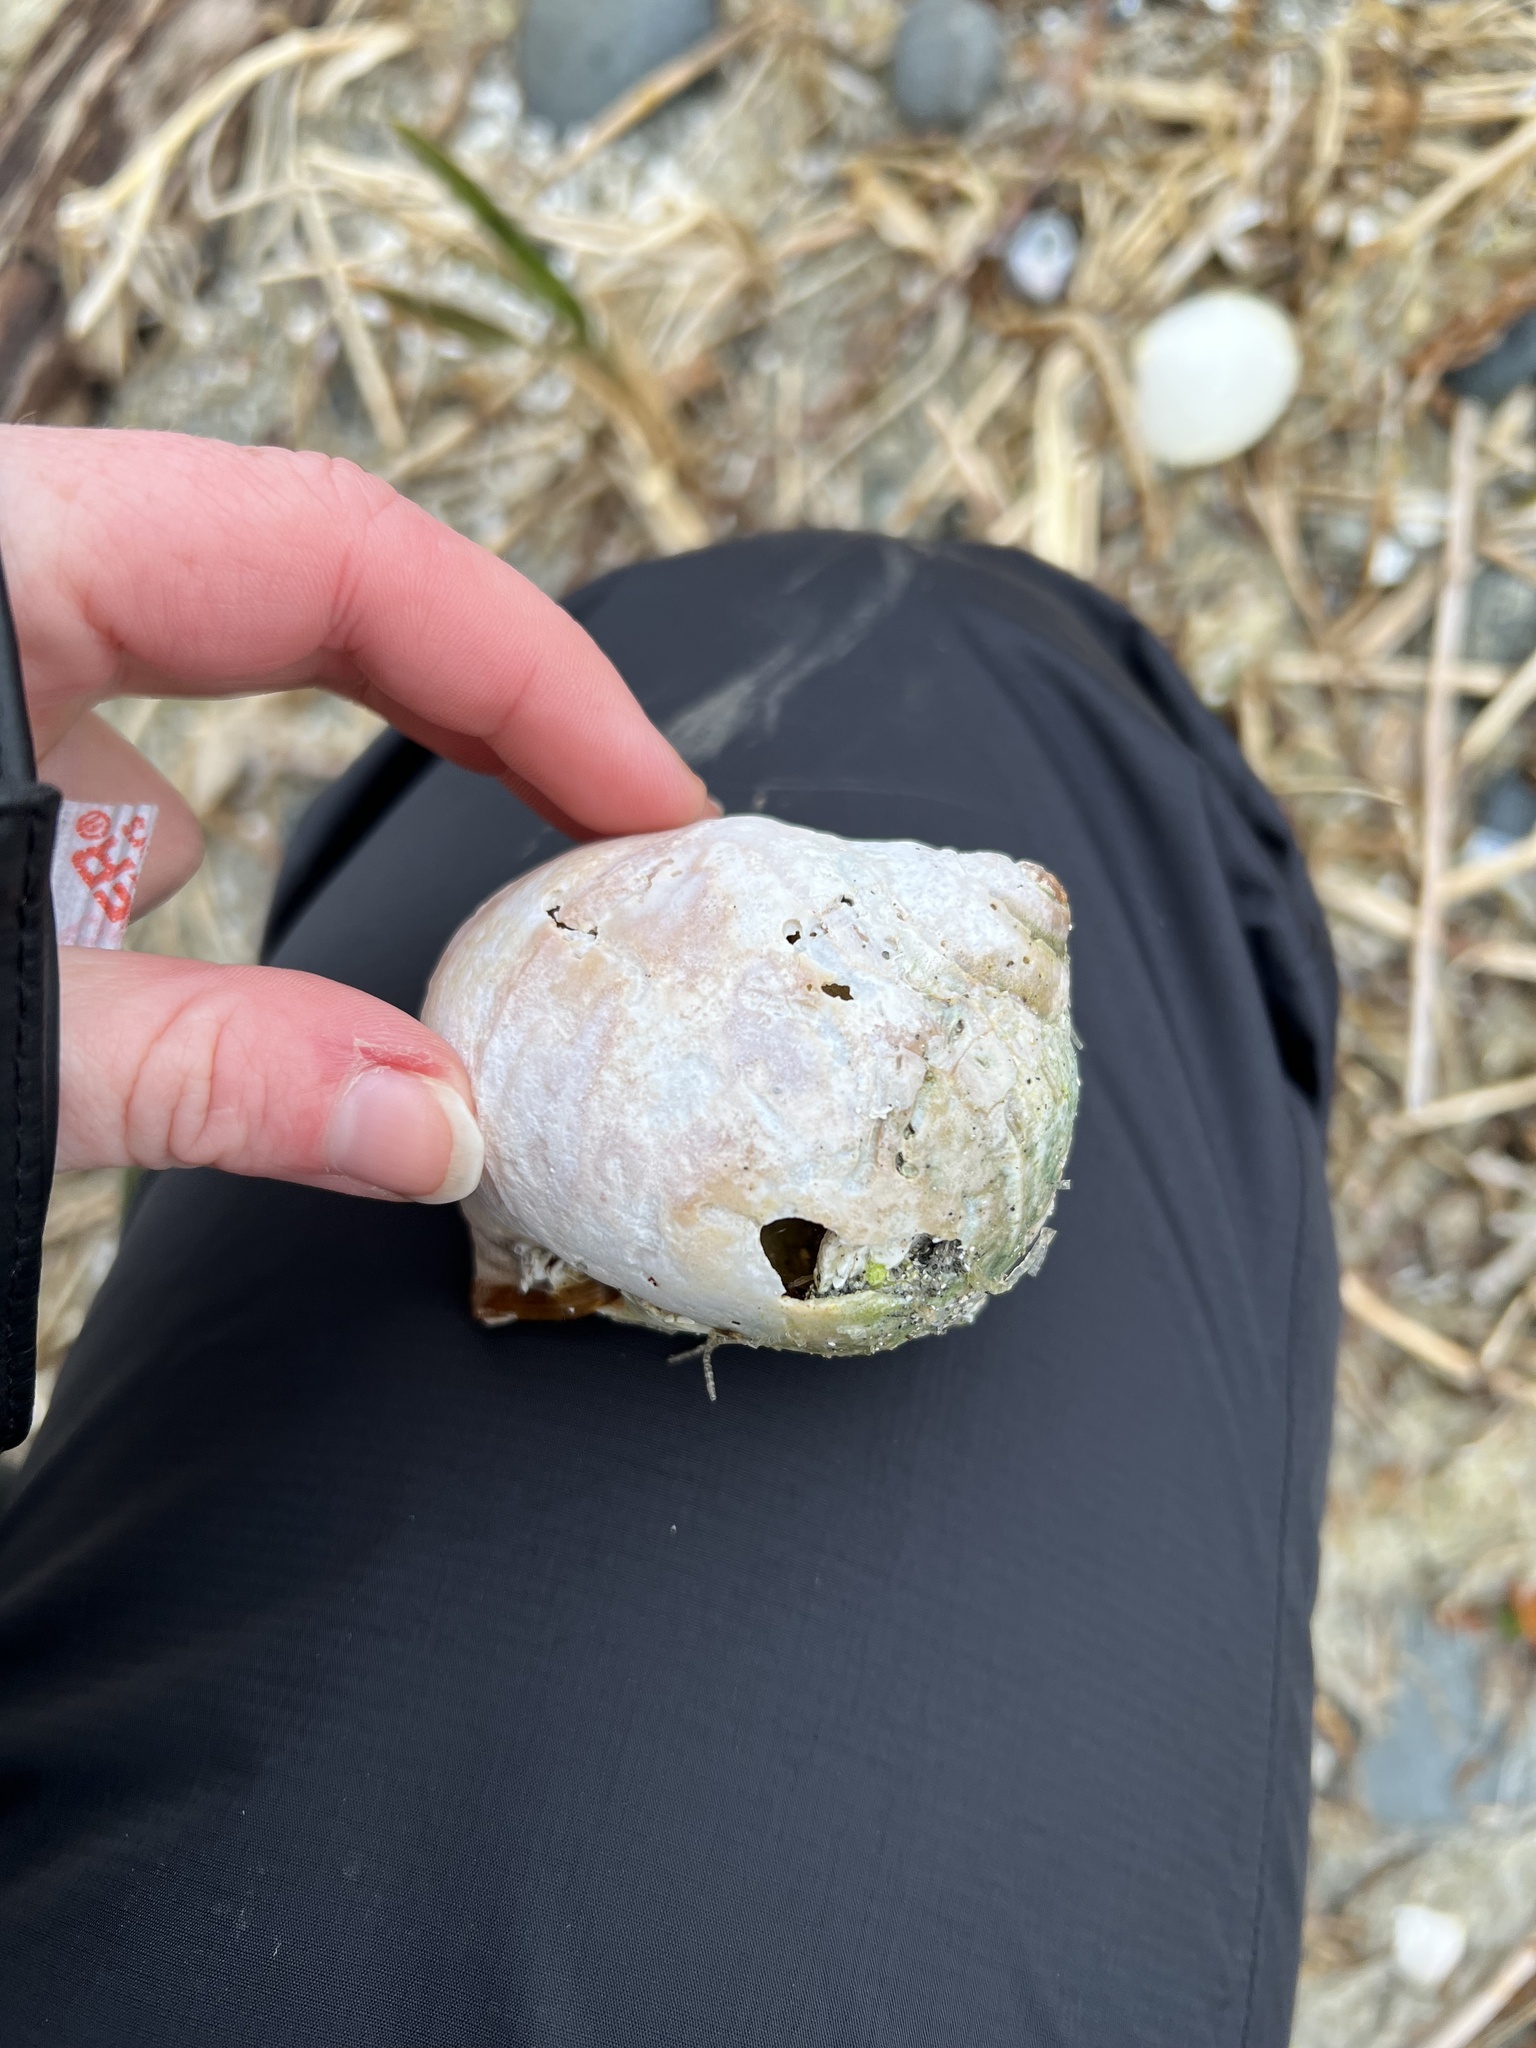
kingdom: Animalia
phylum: Mollusca
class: Gastropoda
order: Littorinimorpha
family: Naticidae
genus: Neverita
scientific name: Neverita lewisii
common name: Lewis' moonsnail
